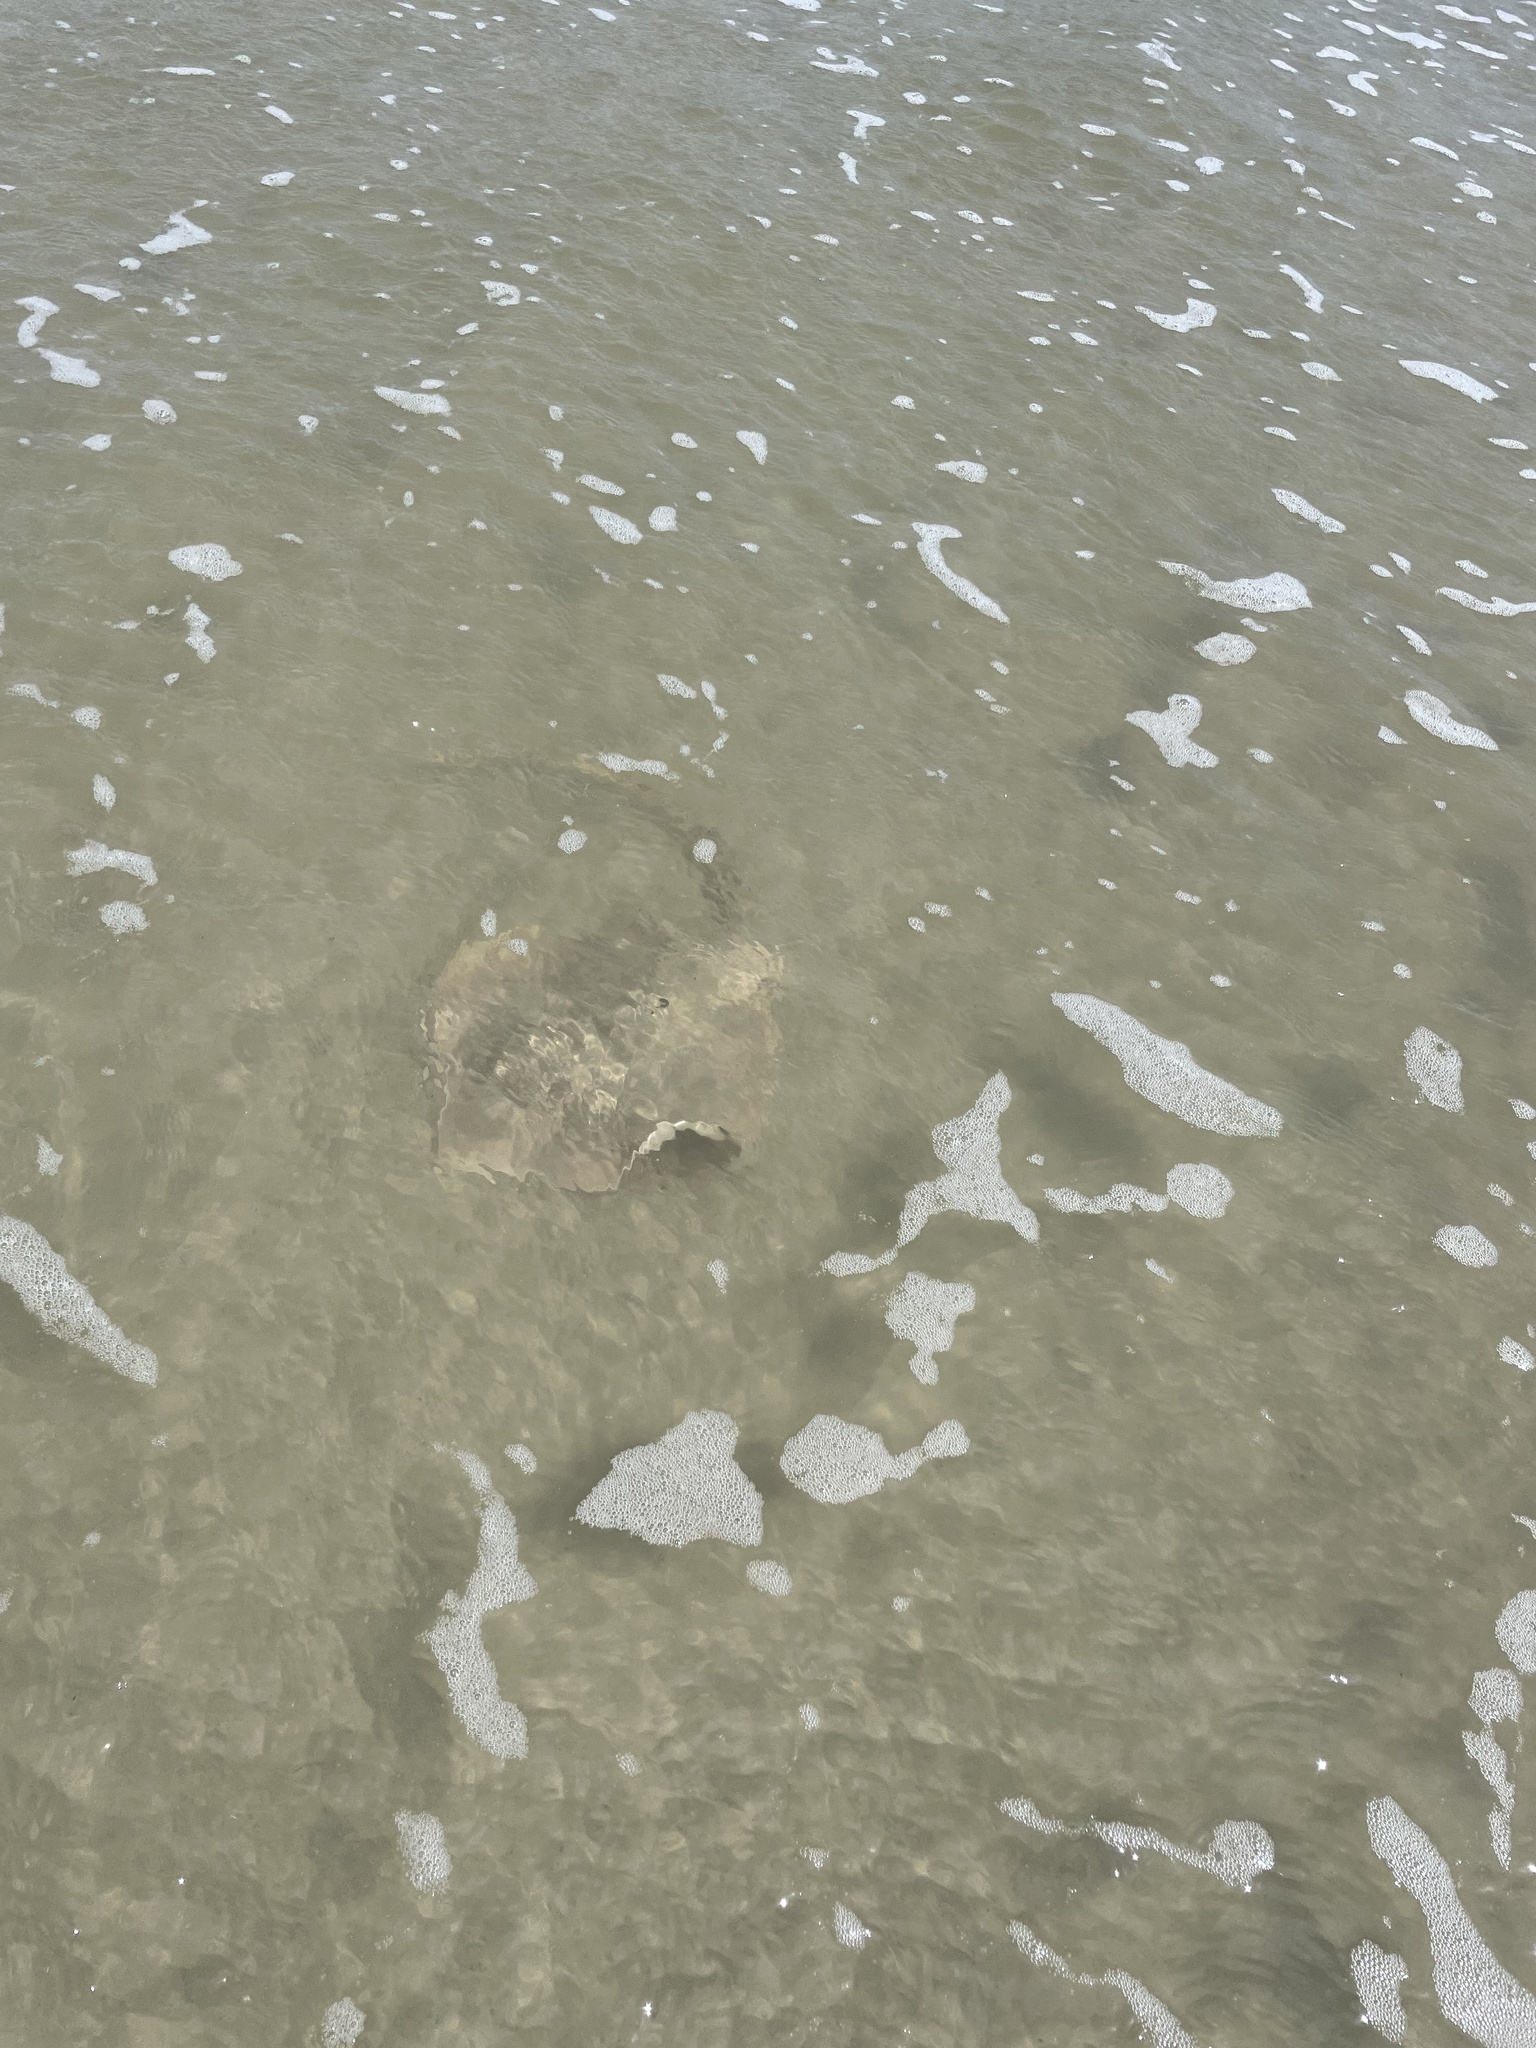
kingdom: Animalia
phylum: Chordata
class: Elasmobranchii
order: Myliobatiformes
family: Dasyatidae
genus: Hypanus
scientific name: Hypanus sabinus
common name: Atlantic stingray
